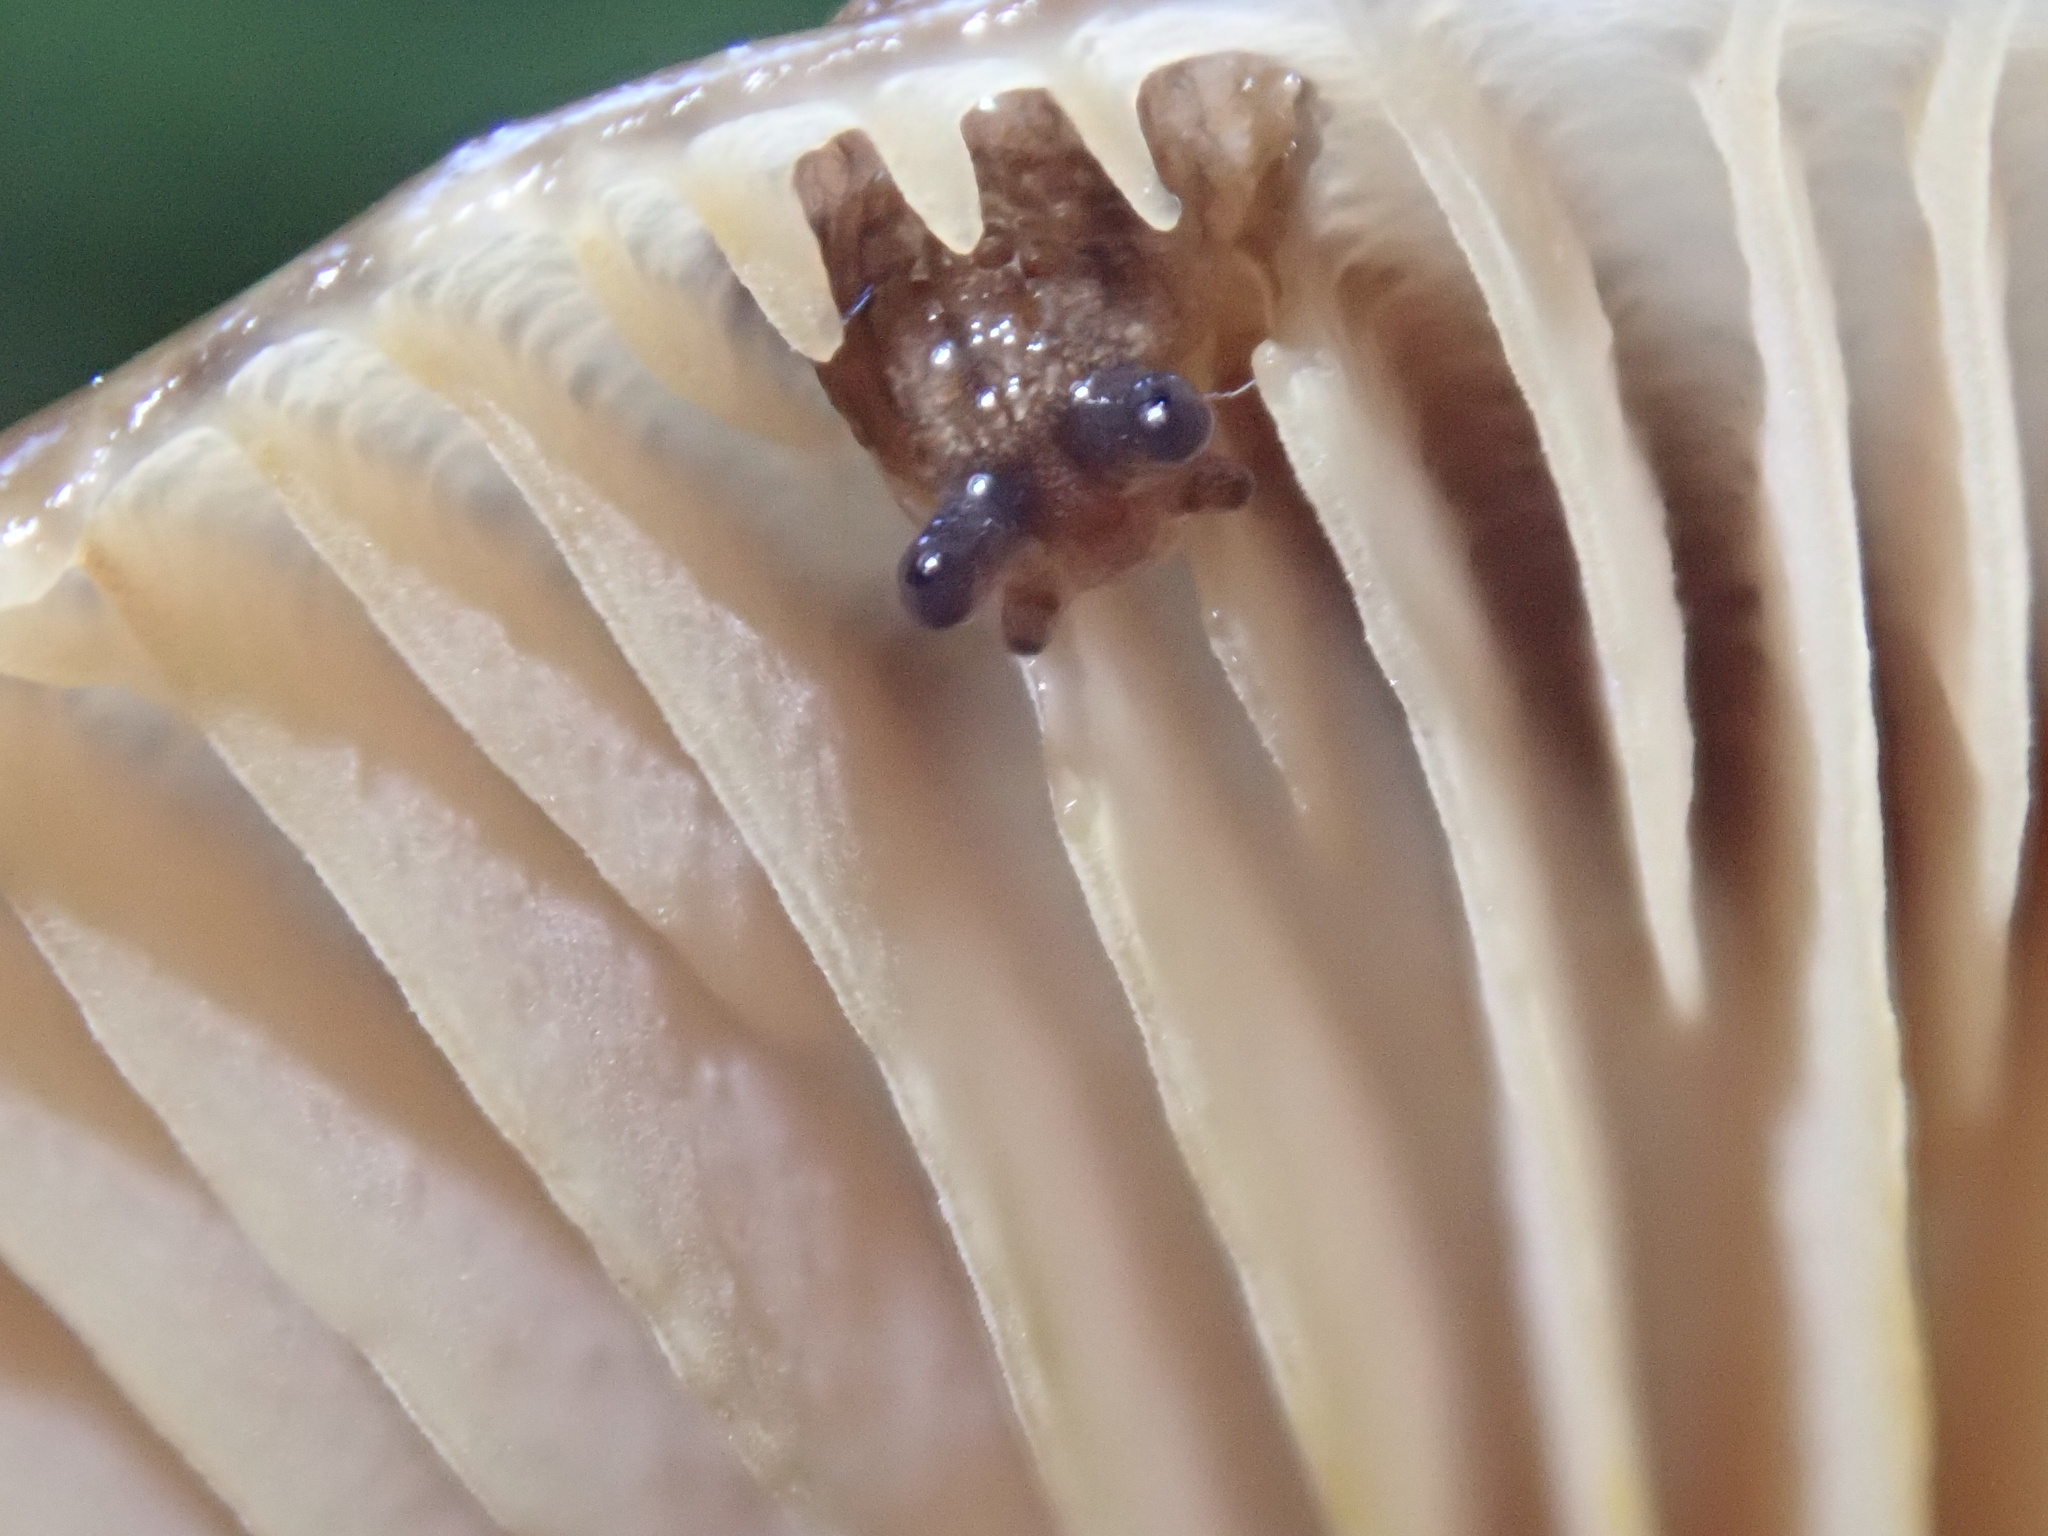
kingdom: Animalia
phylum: Mollusca
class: Gastropoda
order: Stylommatophora
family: Ariolimacidae
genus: Prophysaon
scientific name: Prophysaon vanattae
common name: Scarletback taildropper
